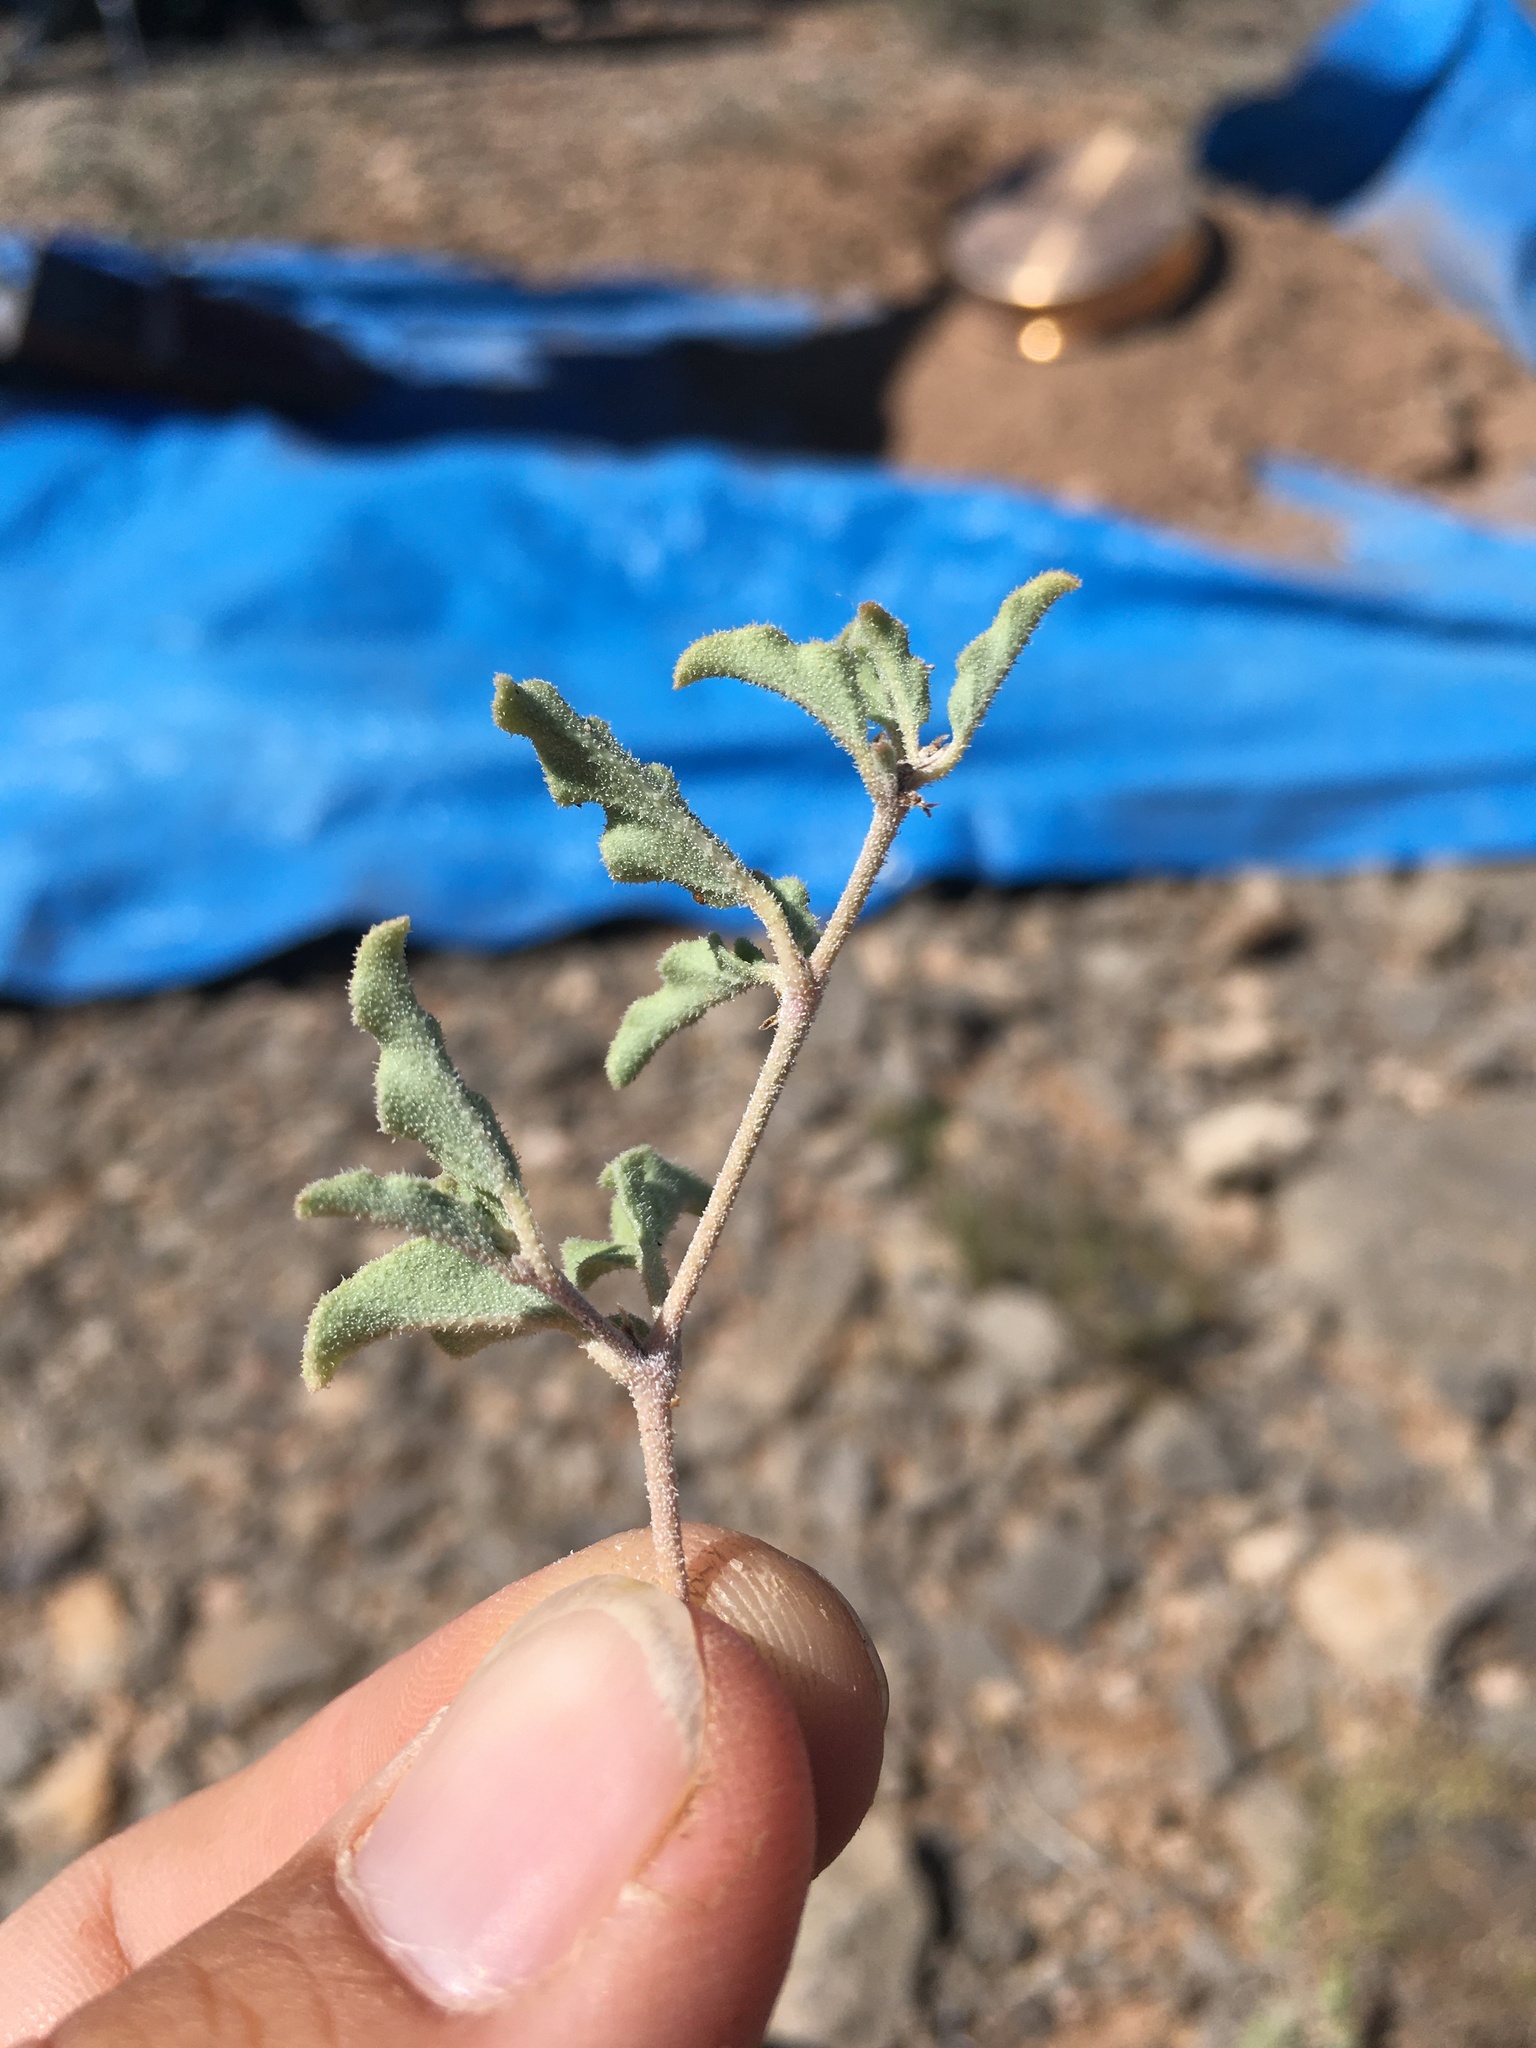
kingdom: Plantae
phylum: Tracheophyta
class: Magnoliopsida
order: Caryophyllales
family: Nyctaginaceae
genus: Acleisanthes
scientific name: Acleisanthes diffusa
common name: Spreading moonpod
